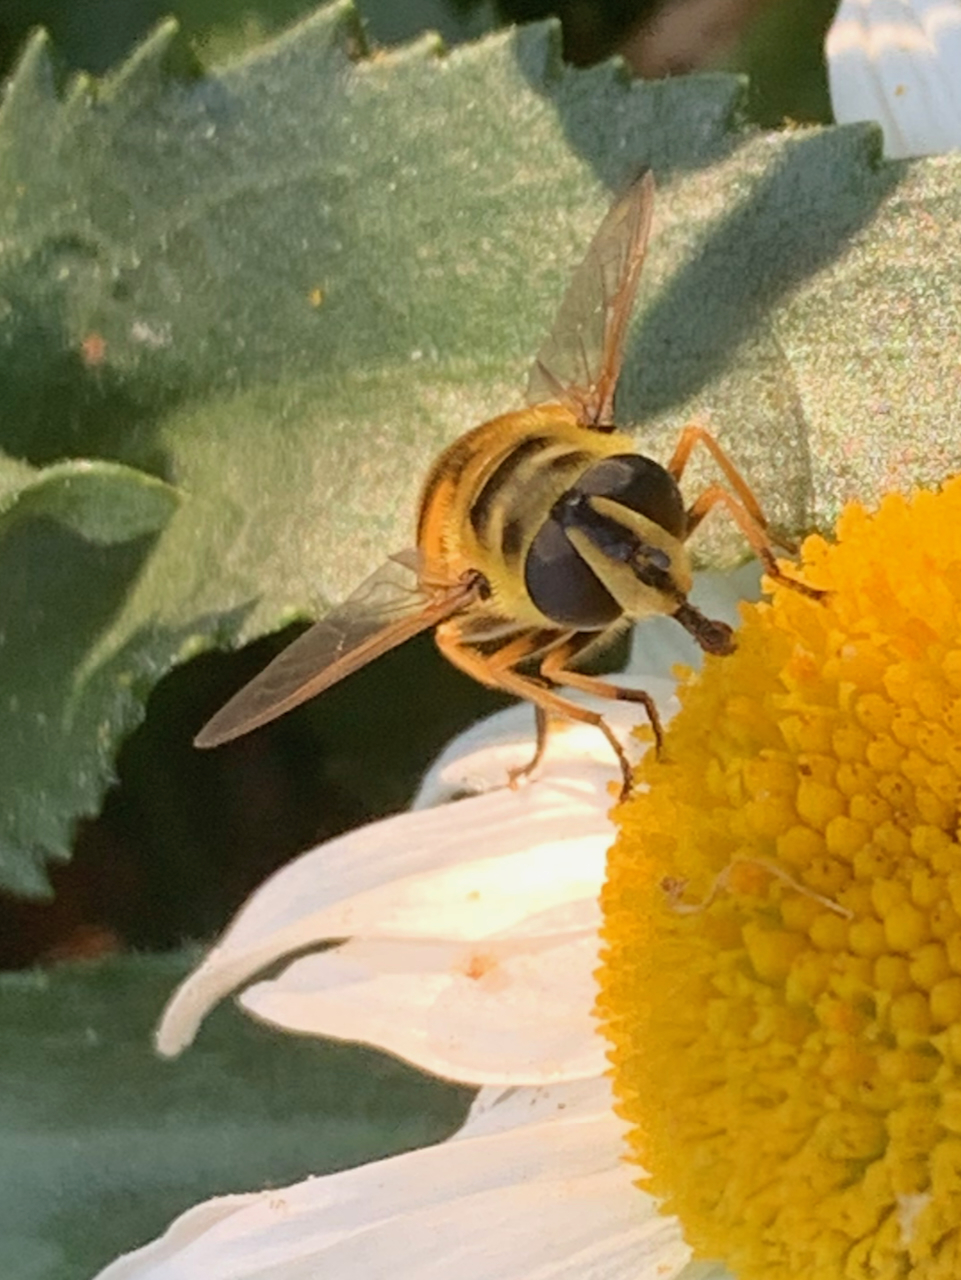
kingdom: Animalia
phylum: Arthropoda
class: Insecta
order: Diptera
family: Syrphidae
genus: Myathropa
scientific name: Myathropa florea
